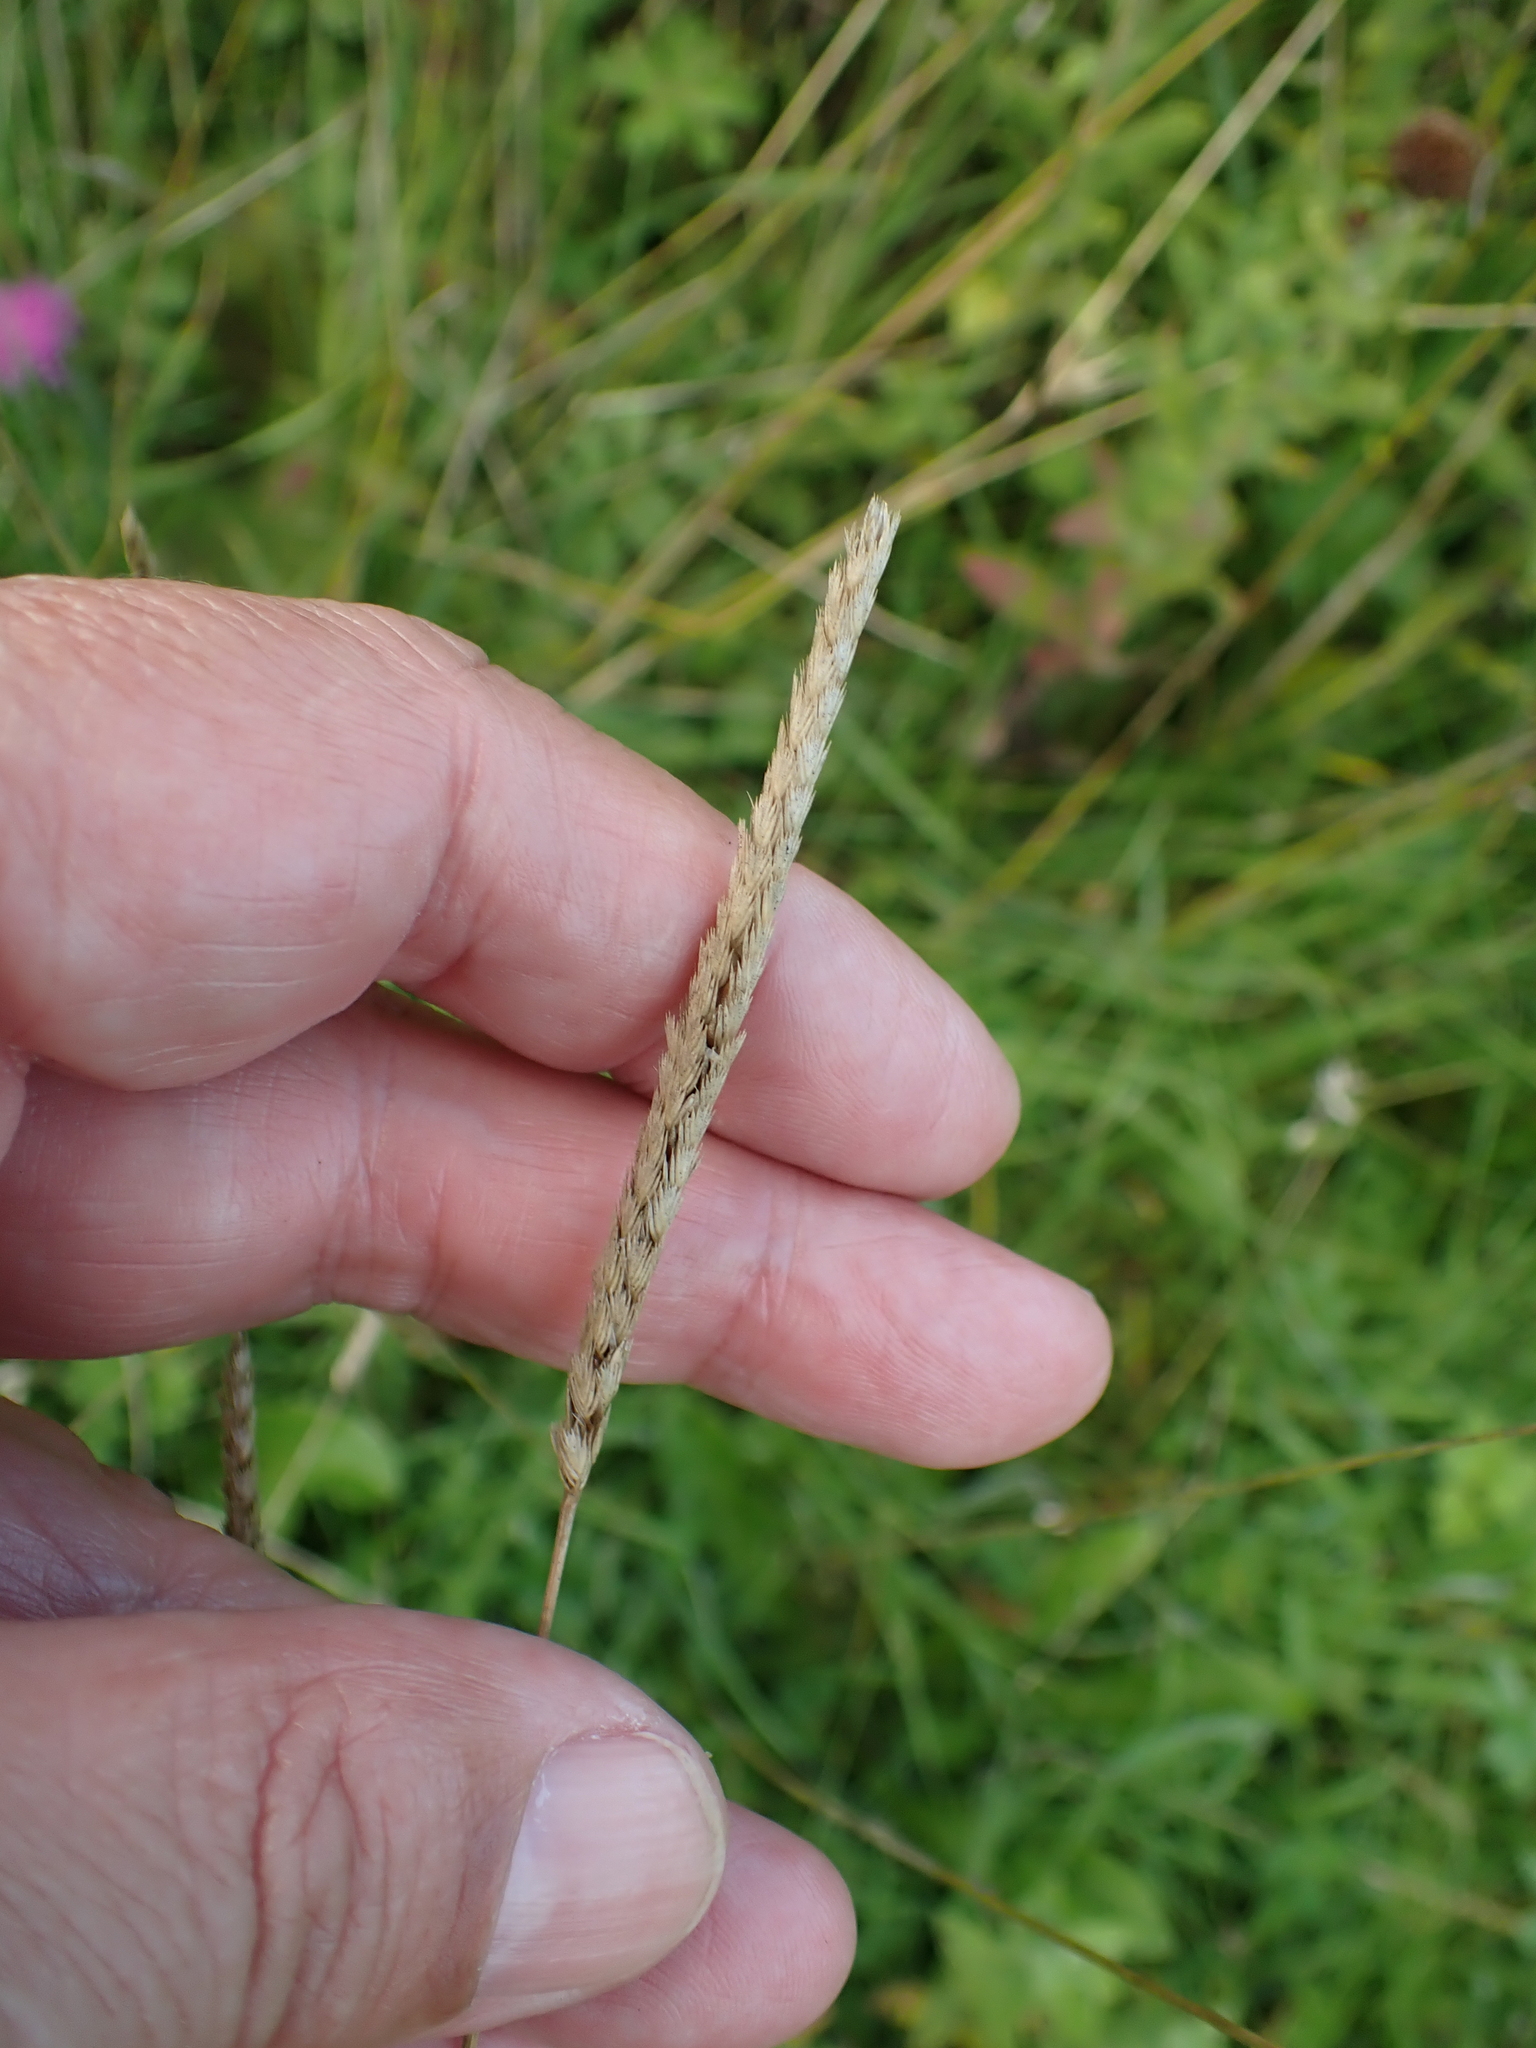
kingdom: Plantae
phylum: Tracheophyta
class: Liliopsida
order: Poales
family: Poaceae
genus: Cynosurus
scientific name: Cynosurus cristatus
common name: Crested dog's-tail
